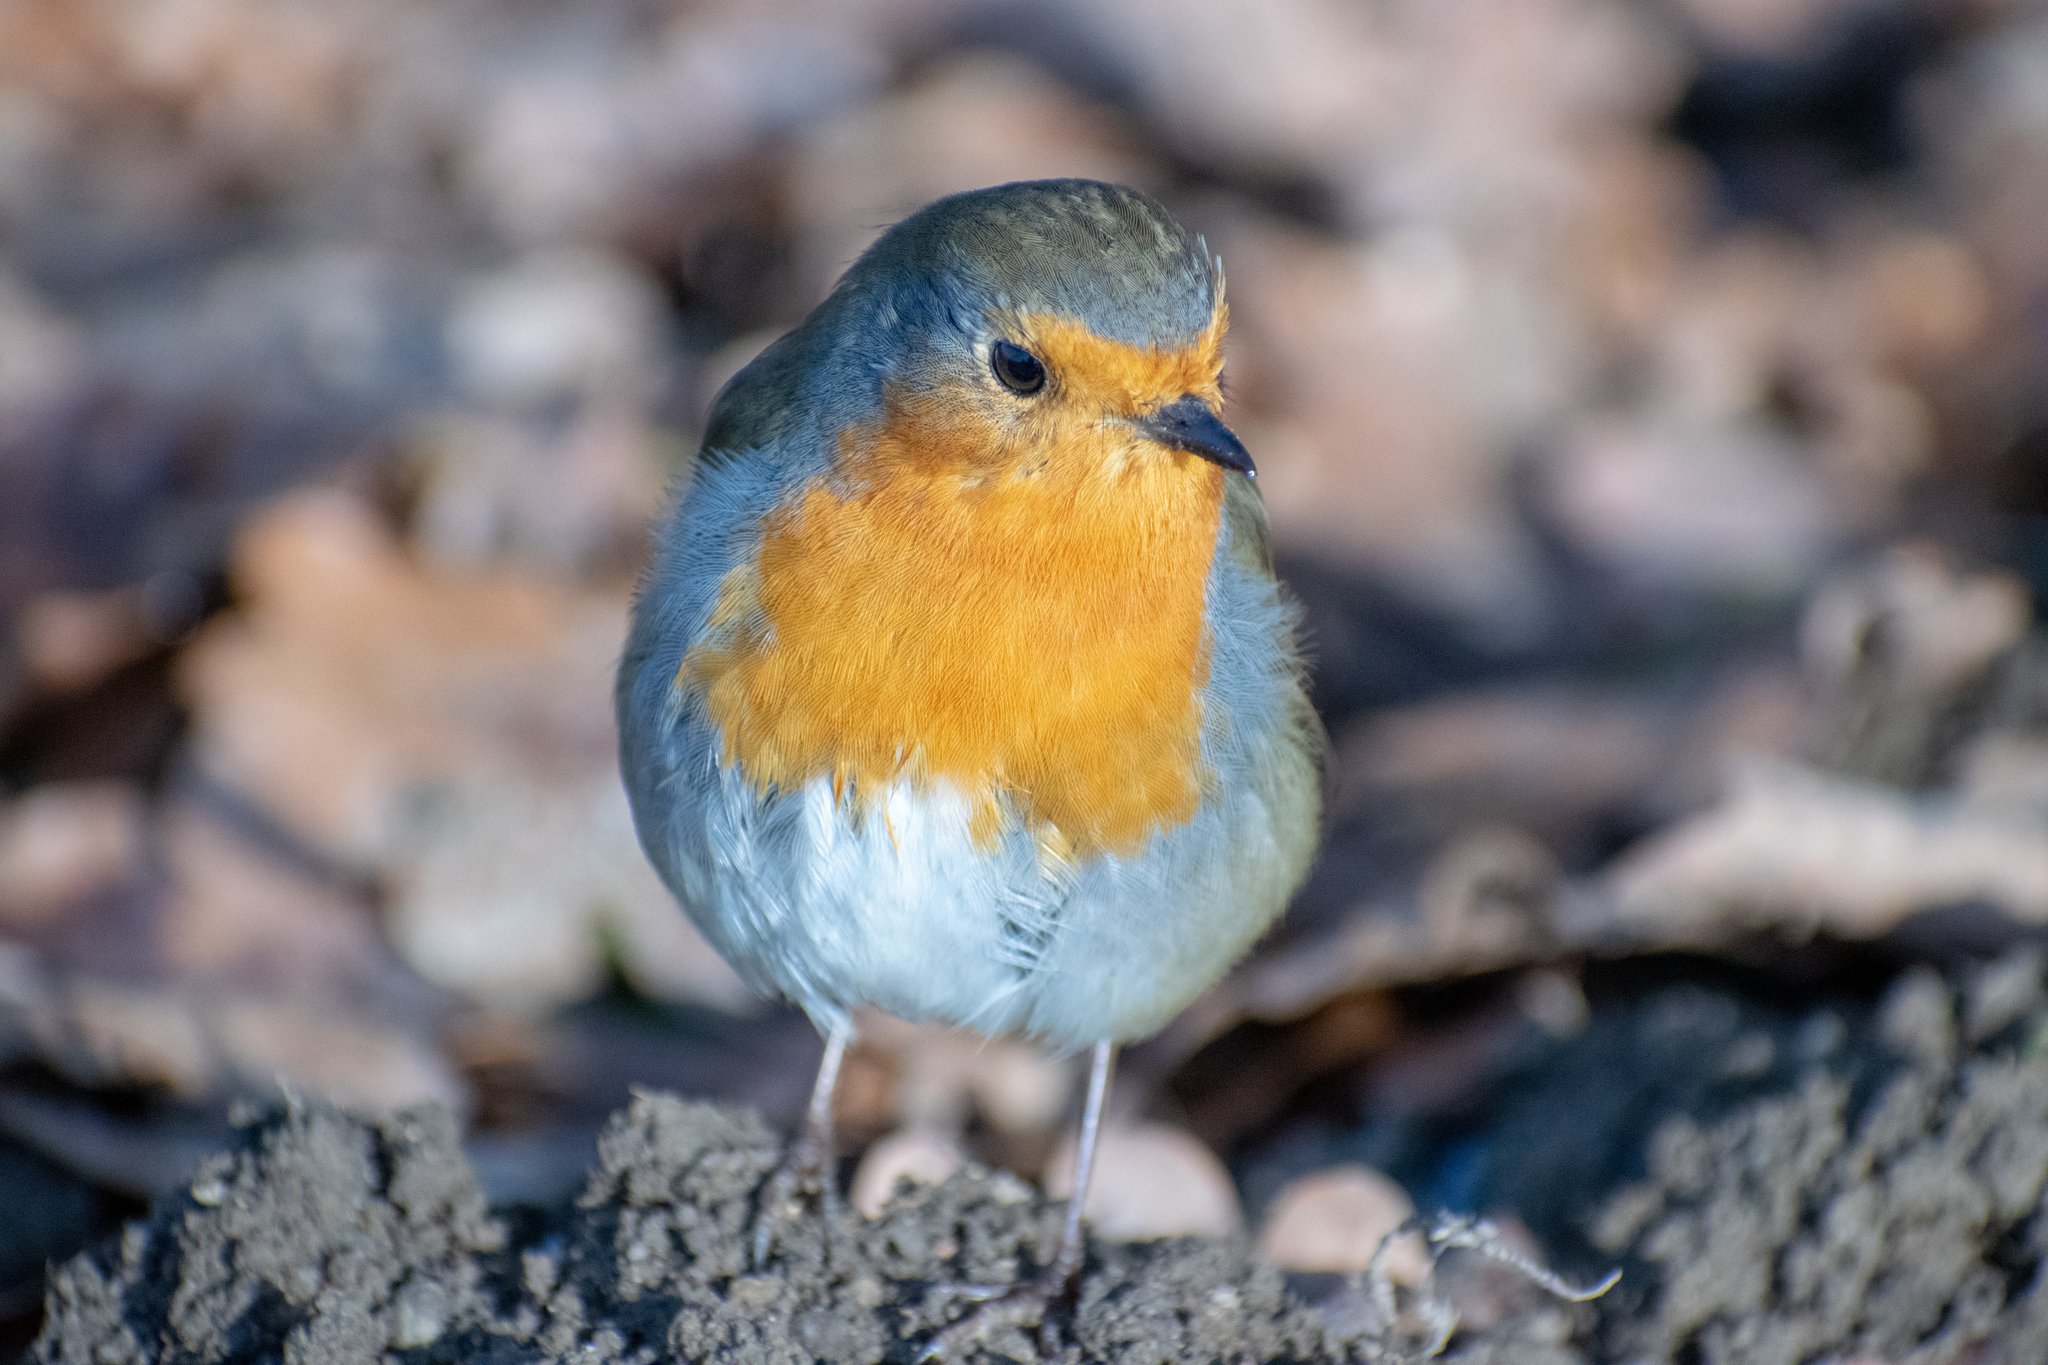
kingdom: Animalia
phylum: Chordata
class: Aves
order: Passeriformes
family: Muscicapidae
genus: Erithacus
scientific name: Erithacus rubecula
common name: European robin
